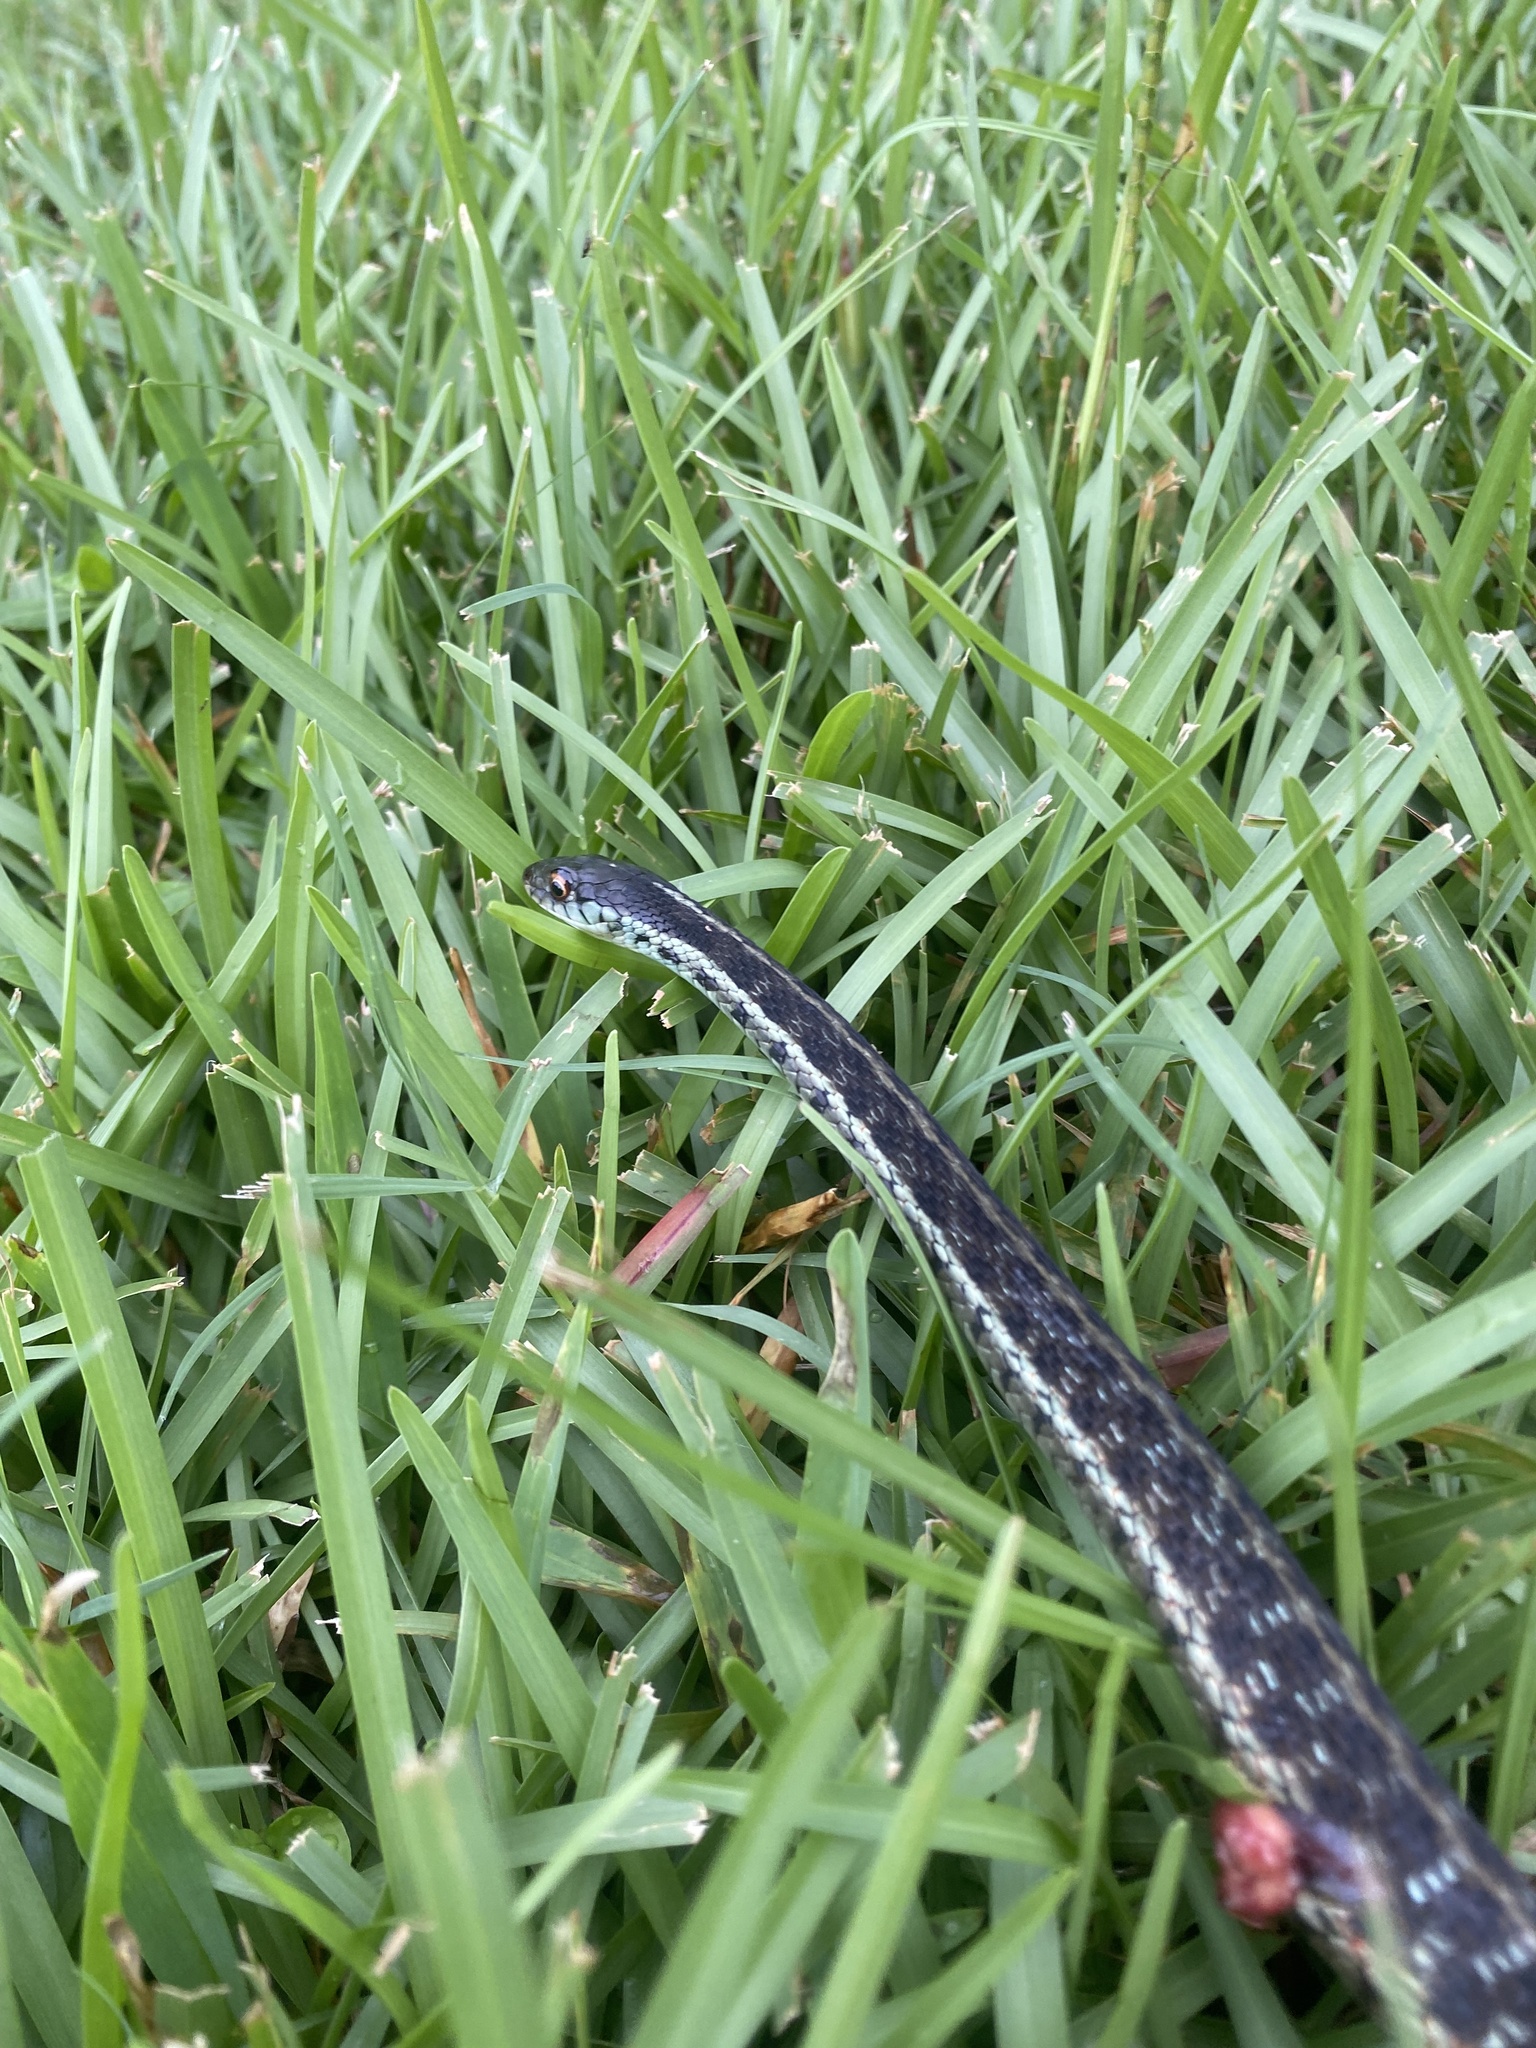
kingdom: Animalia
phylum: Chordata
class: Squamata
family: Colubridae
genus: Thamnophis
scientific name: Thamnophis sirtalis
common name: Common garter snake
